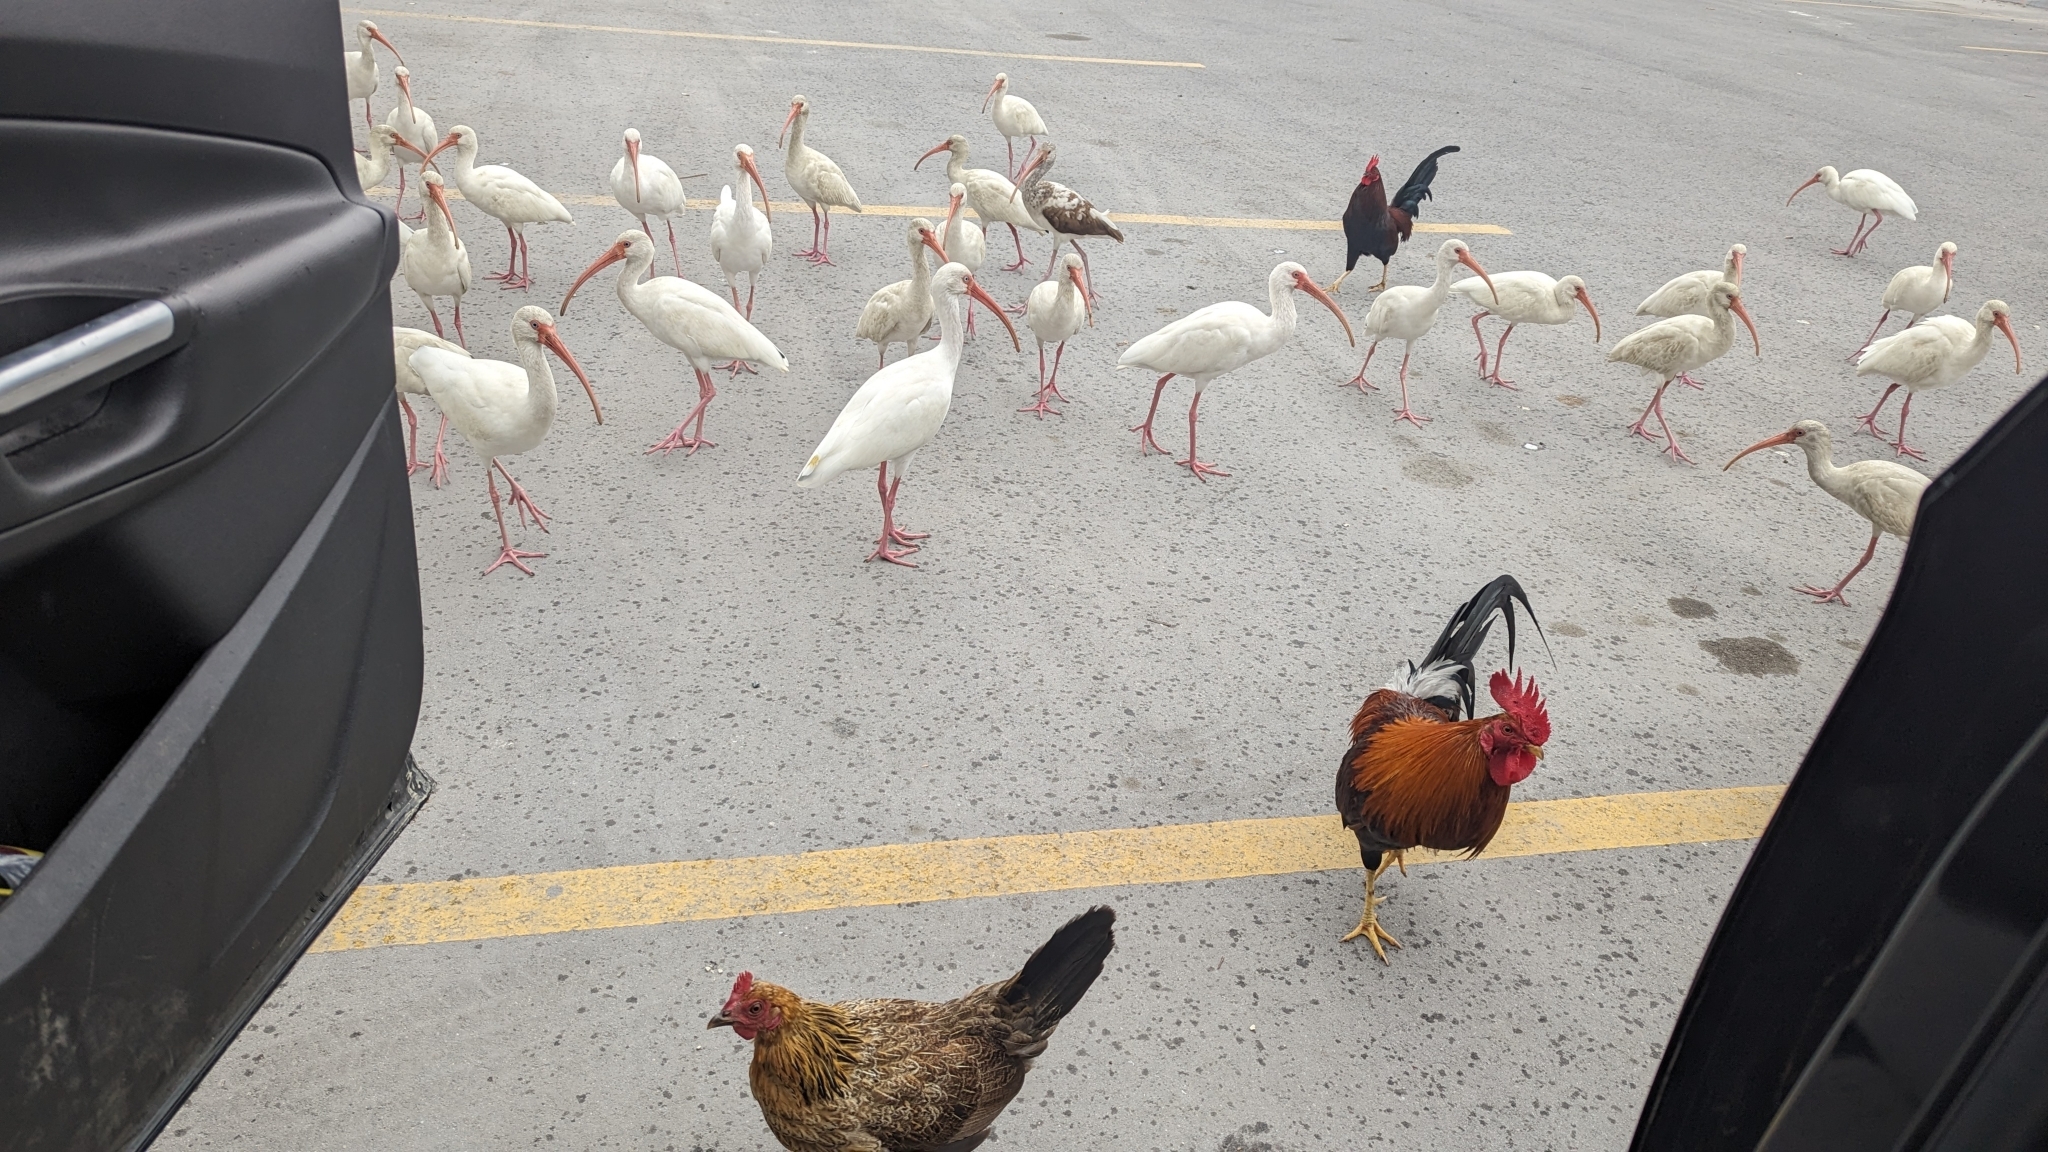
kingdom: Animalia
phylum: Chordata
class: Aves
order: Pelecaniformes
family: Threskiornithidae
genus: Eudocimus
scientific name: Eudocimus albus
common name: White ibis
